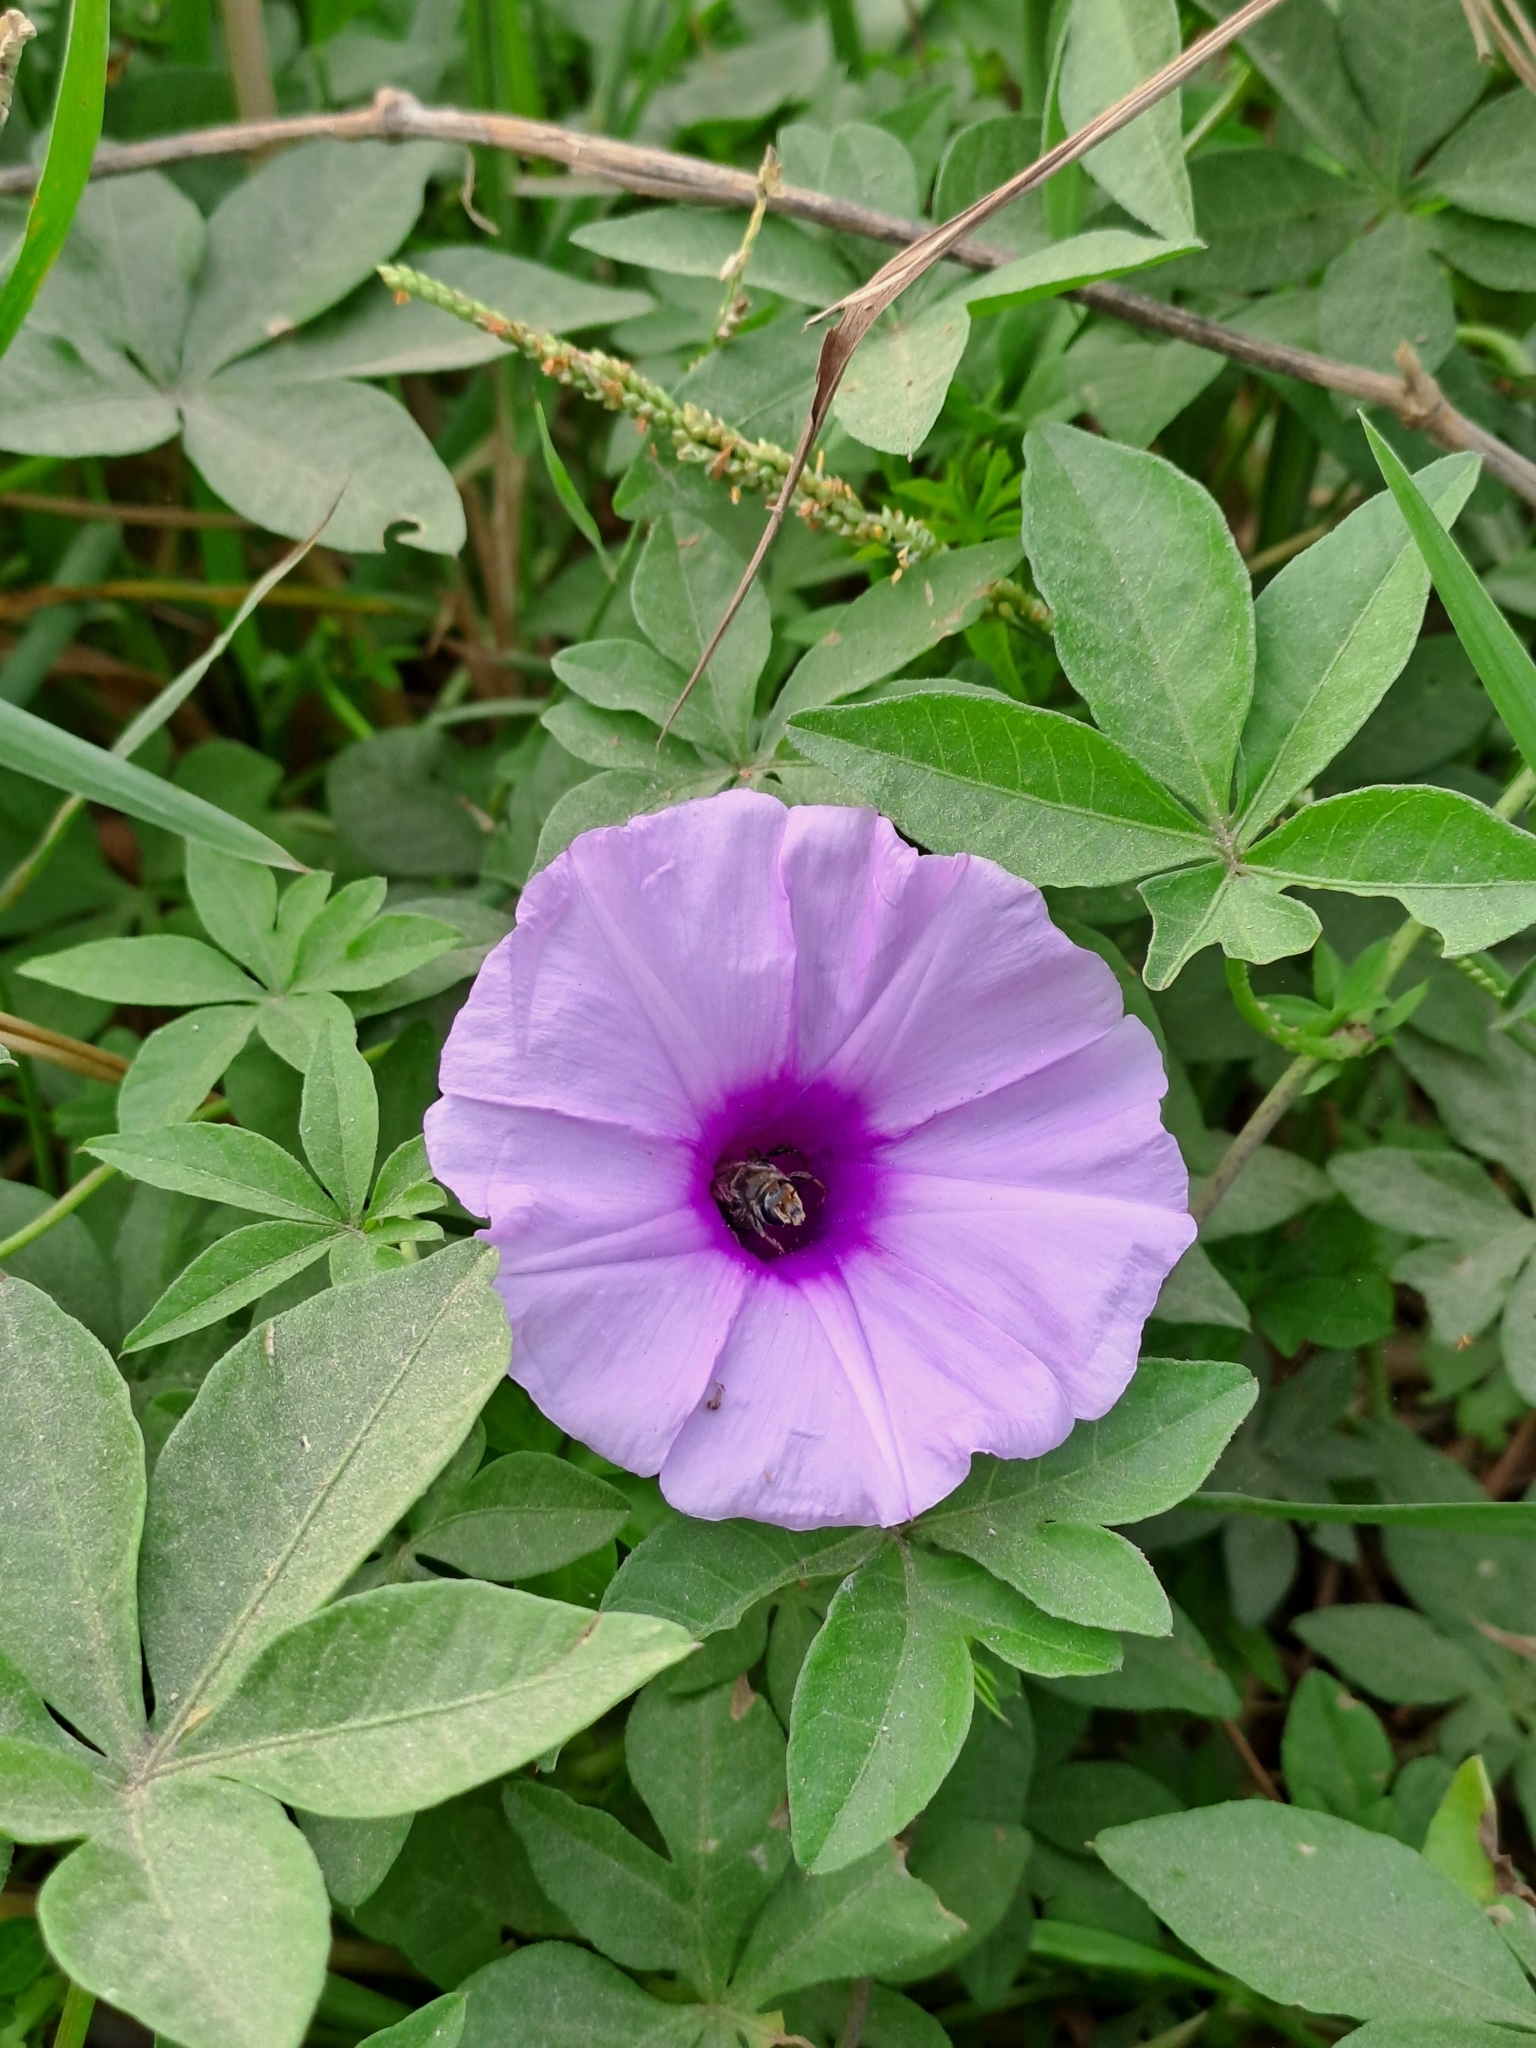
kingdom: Plantae
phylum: Tracheophyta
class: Magnoliopsida
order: Solanales
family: Convolvulaceae
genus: Ipomoea
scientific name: Ipomoea cairica
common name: Mile a minute vine
